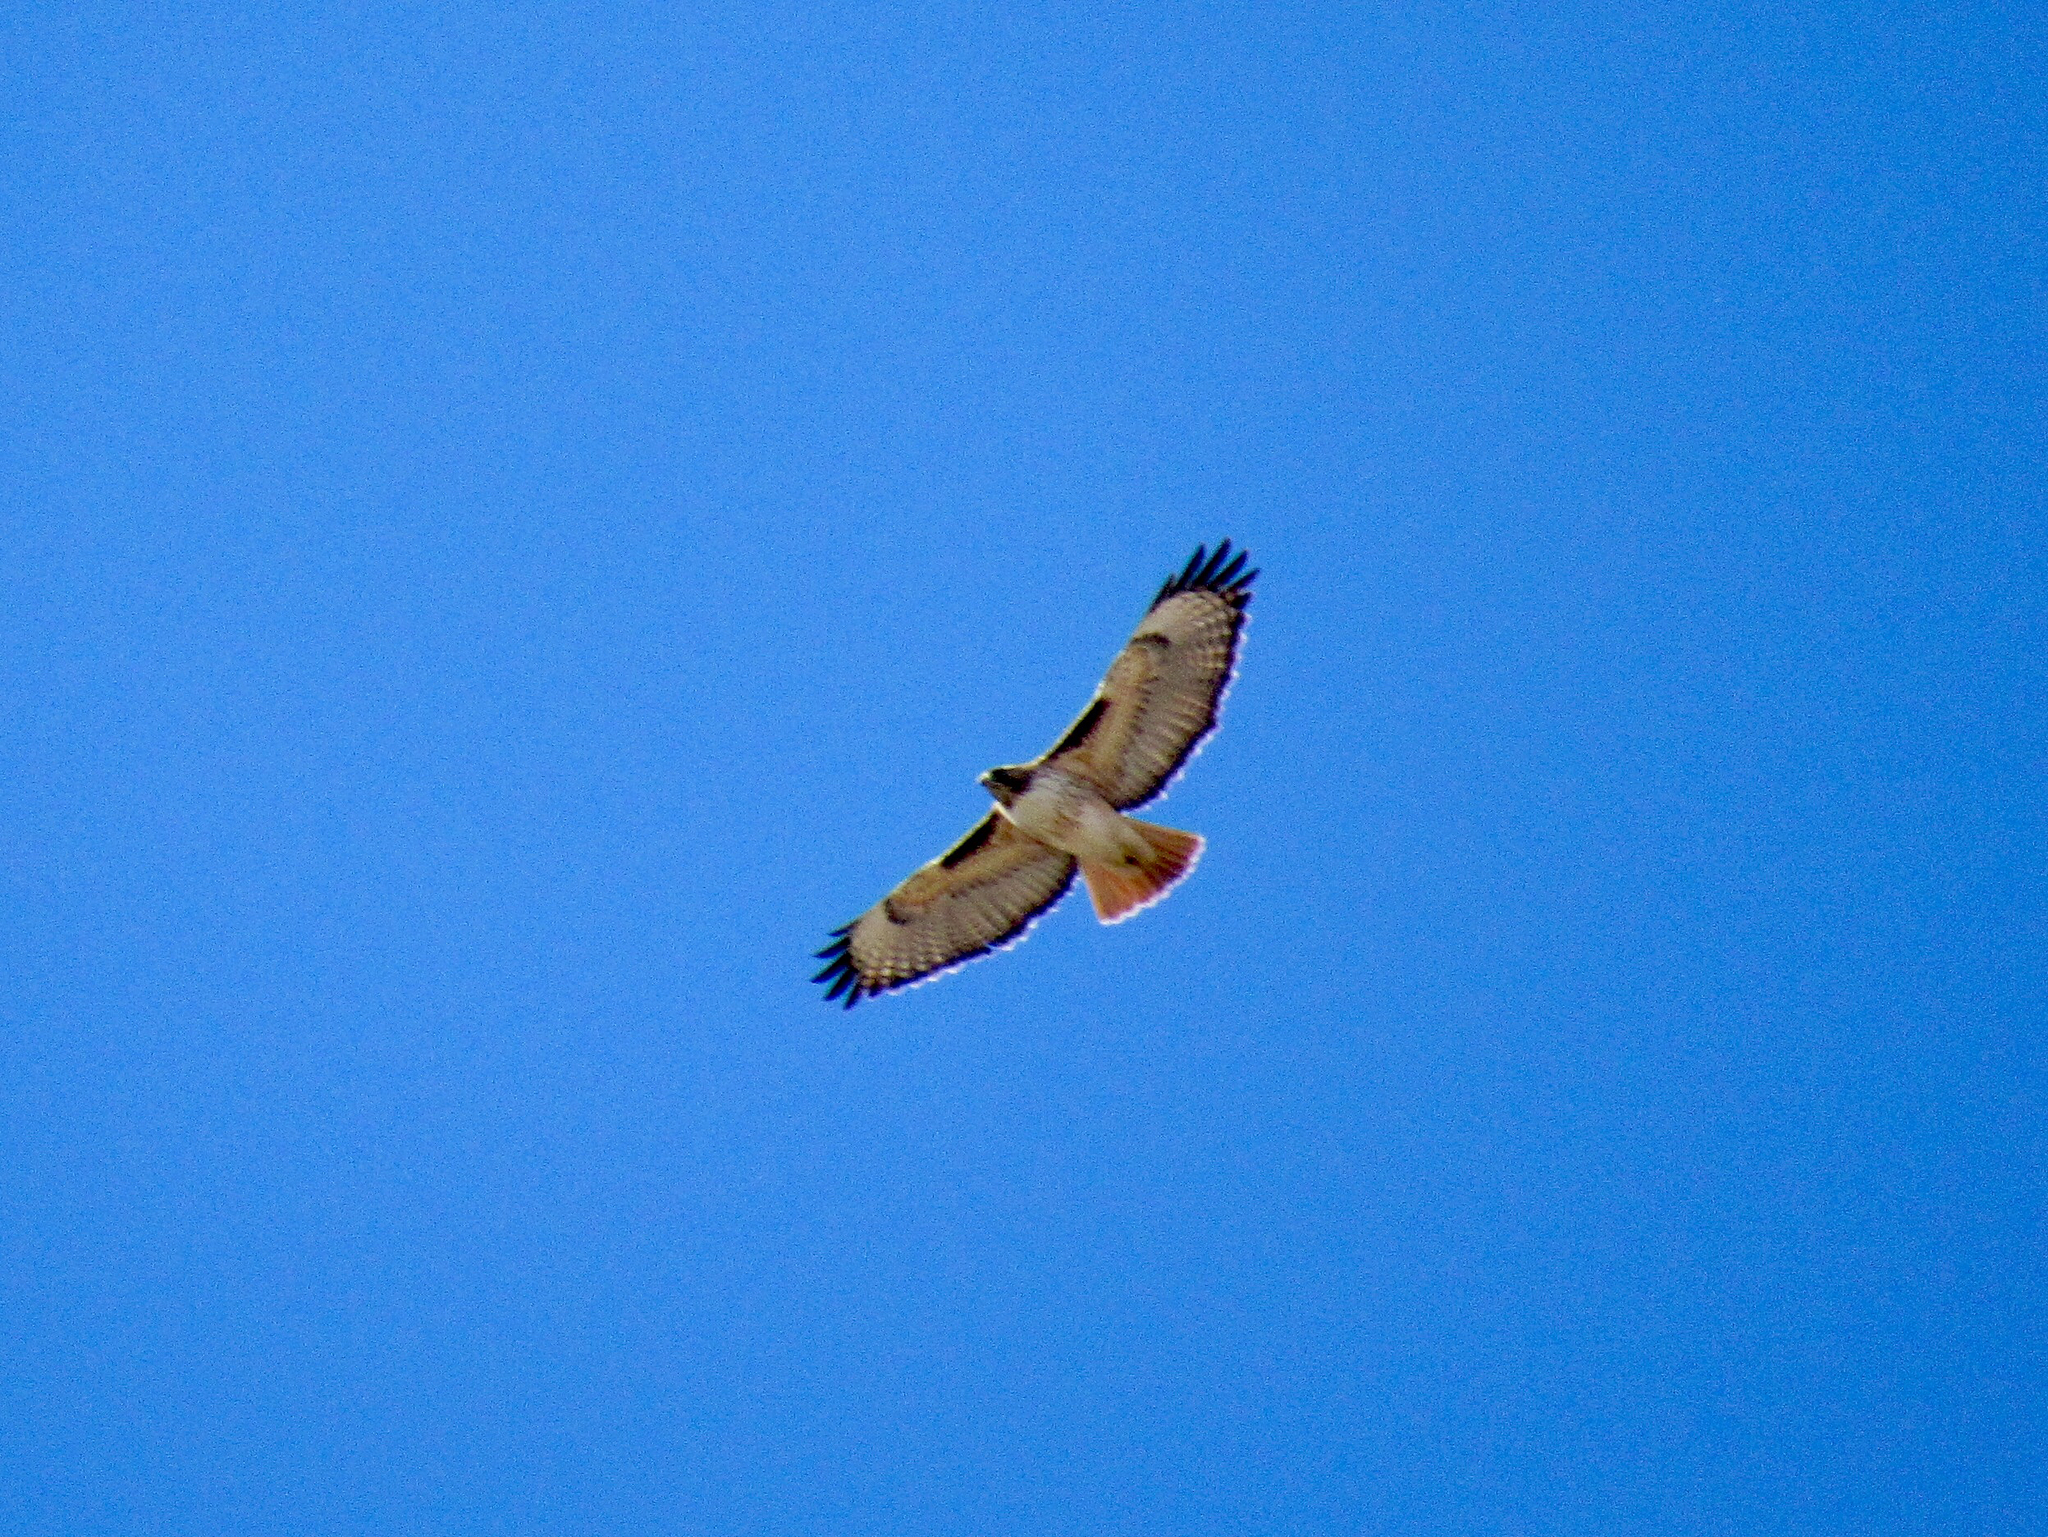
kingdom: Animalia
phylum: Chordata
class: Aves
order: Accipitriformes
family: Accipitridae
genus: Buteo
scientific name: Buteo jamaicensis
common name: Red-tailed hawk
